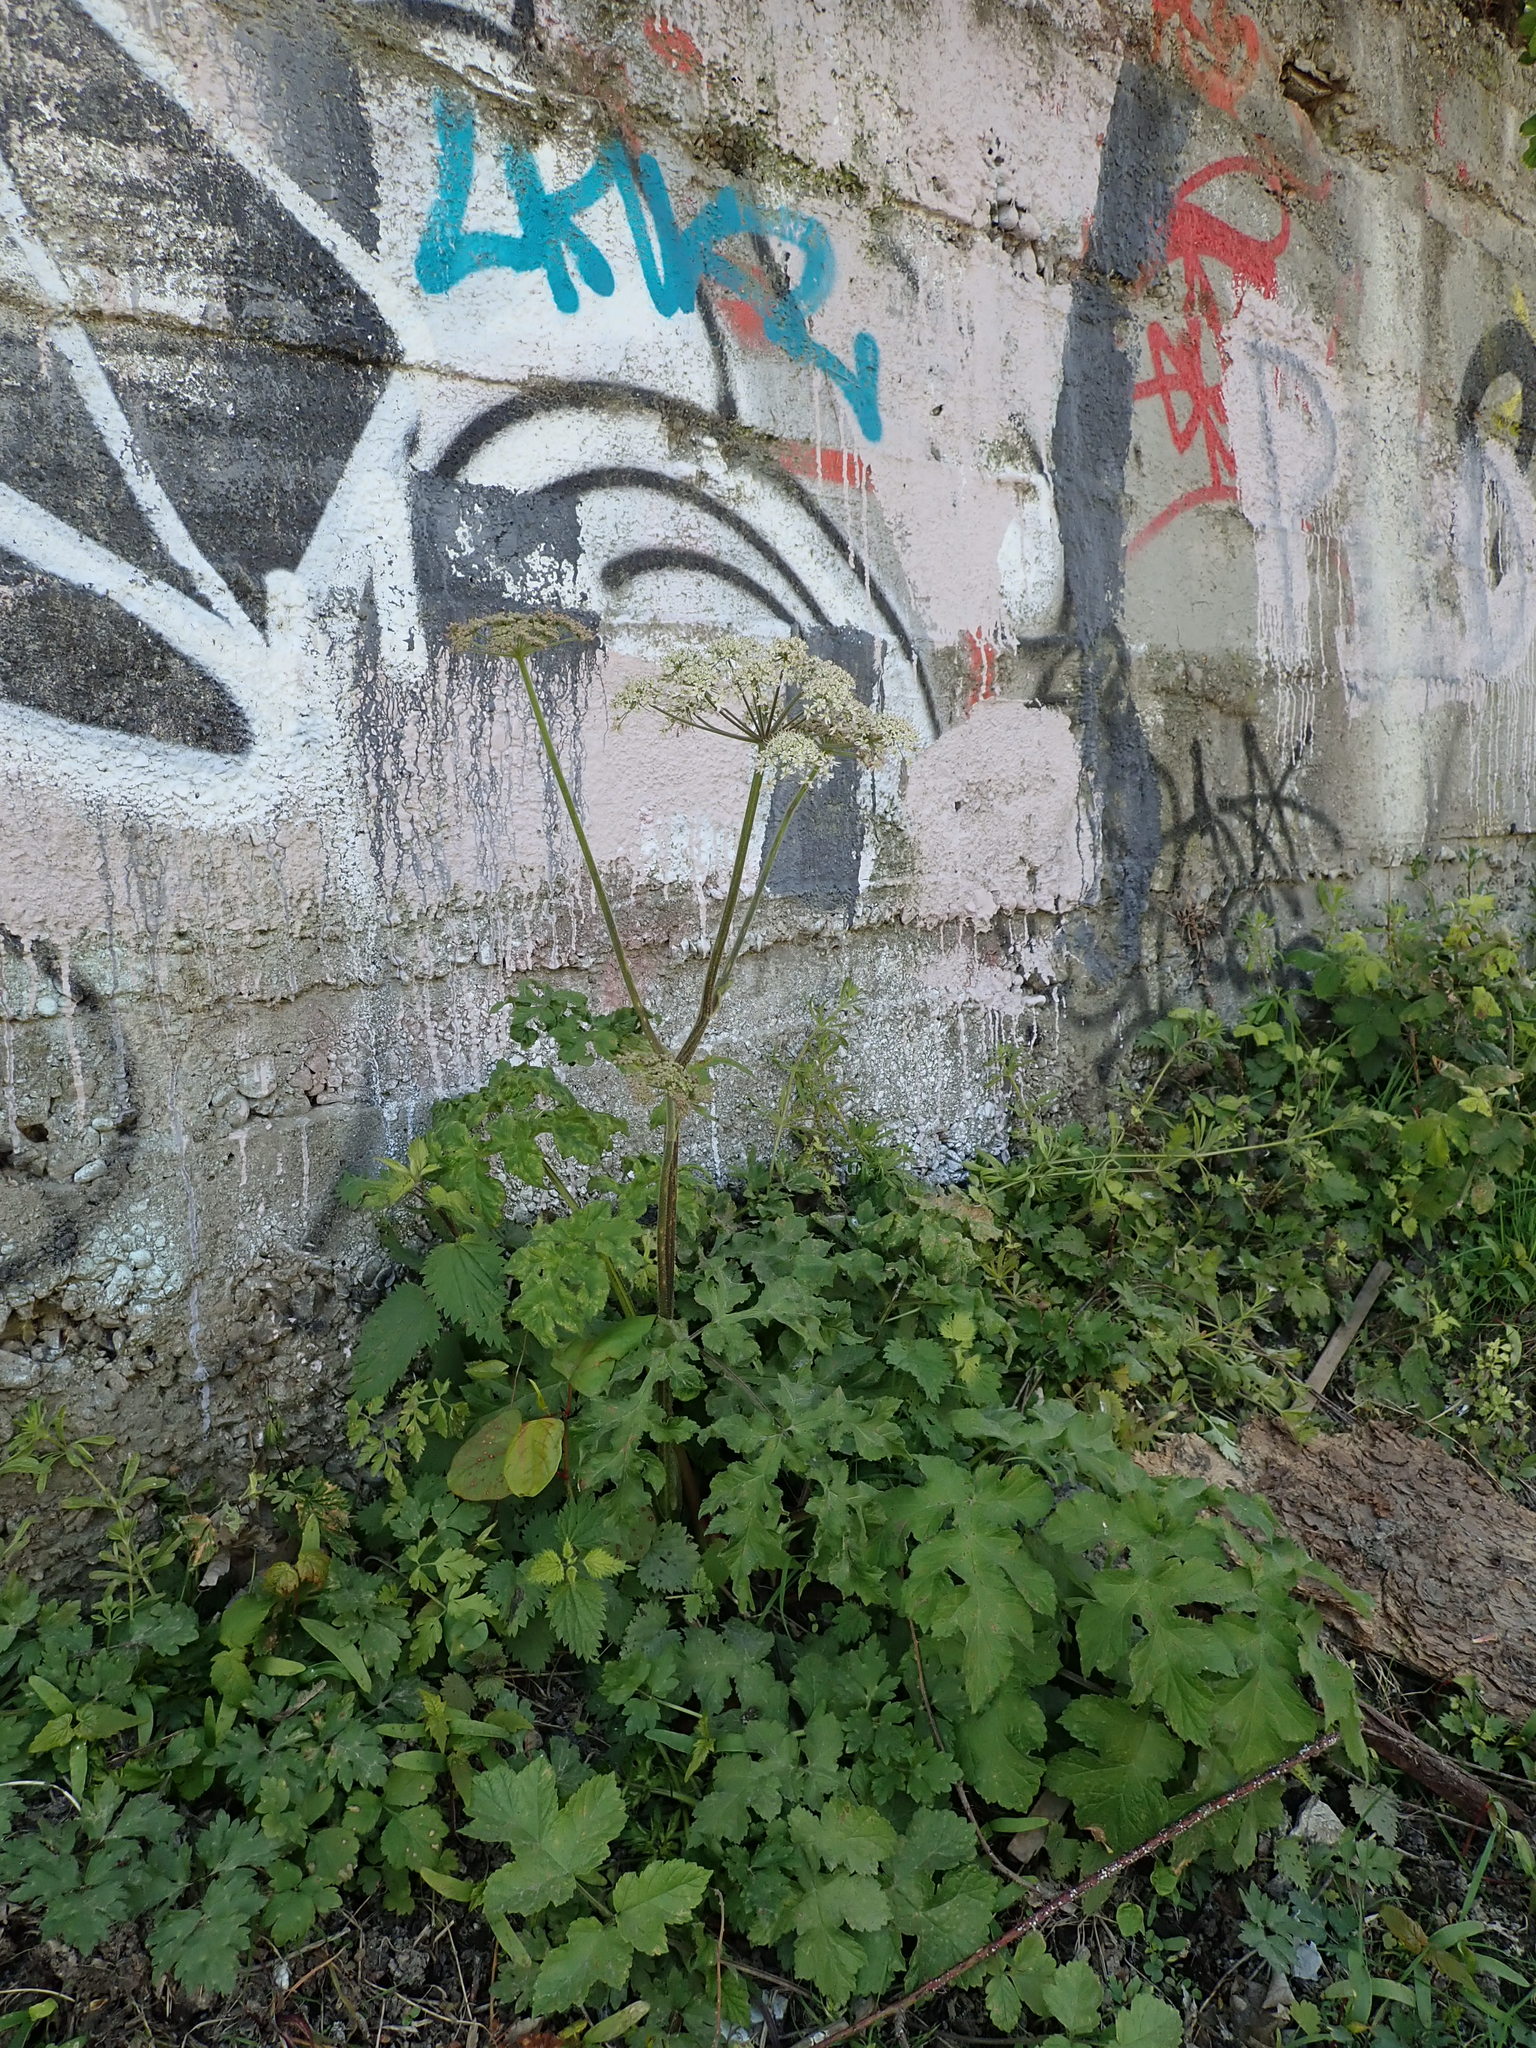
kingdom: Plantae
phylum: Tracheophyta
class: Magnoliopsida
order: Apiales
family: Apiaceae
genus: Heracleum
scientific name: Heracleum sphondylium
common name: Hogweed
